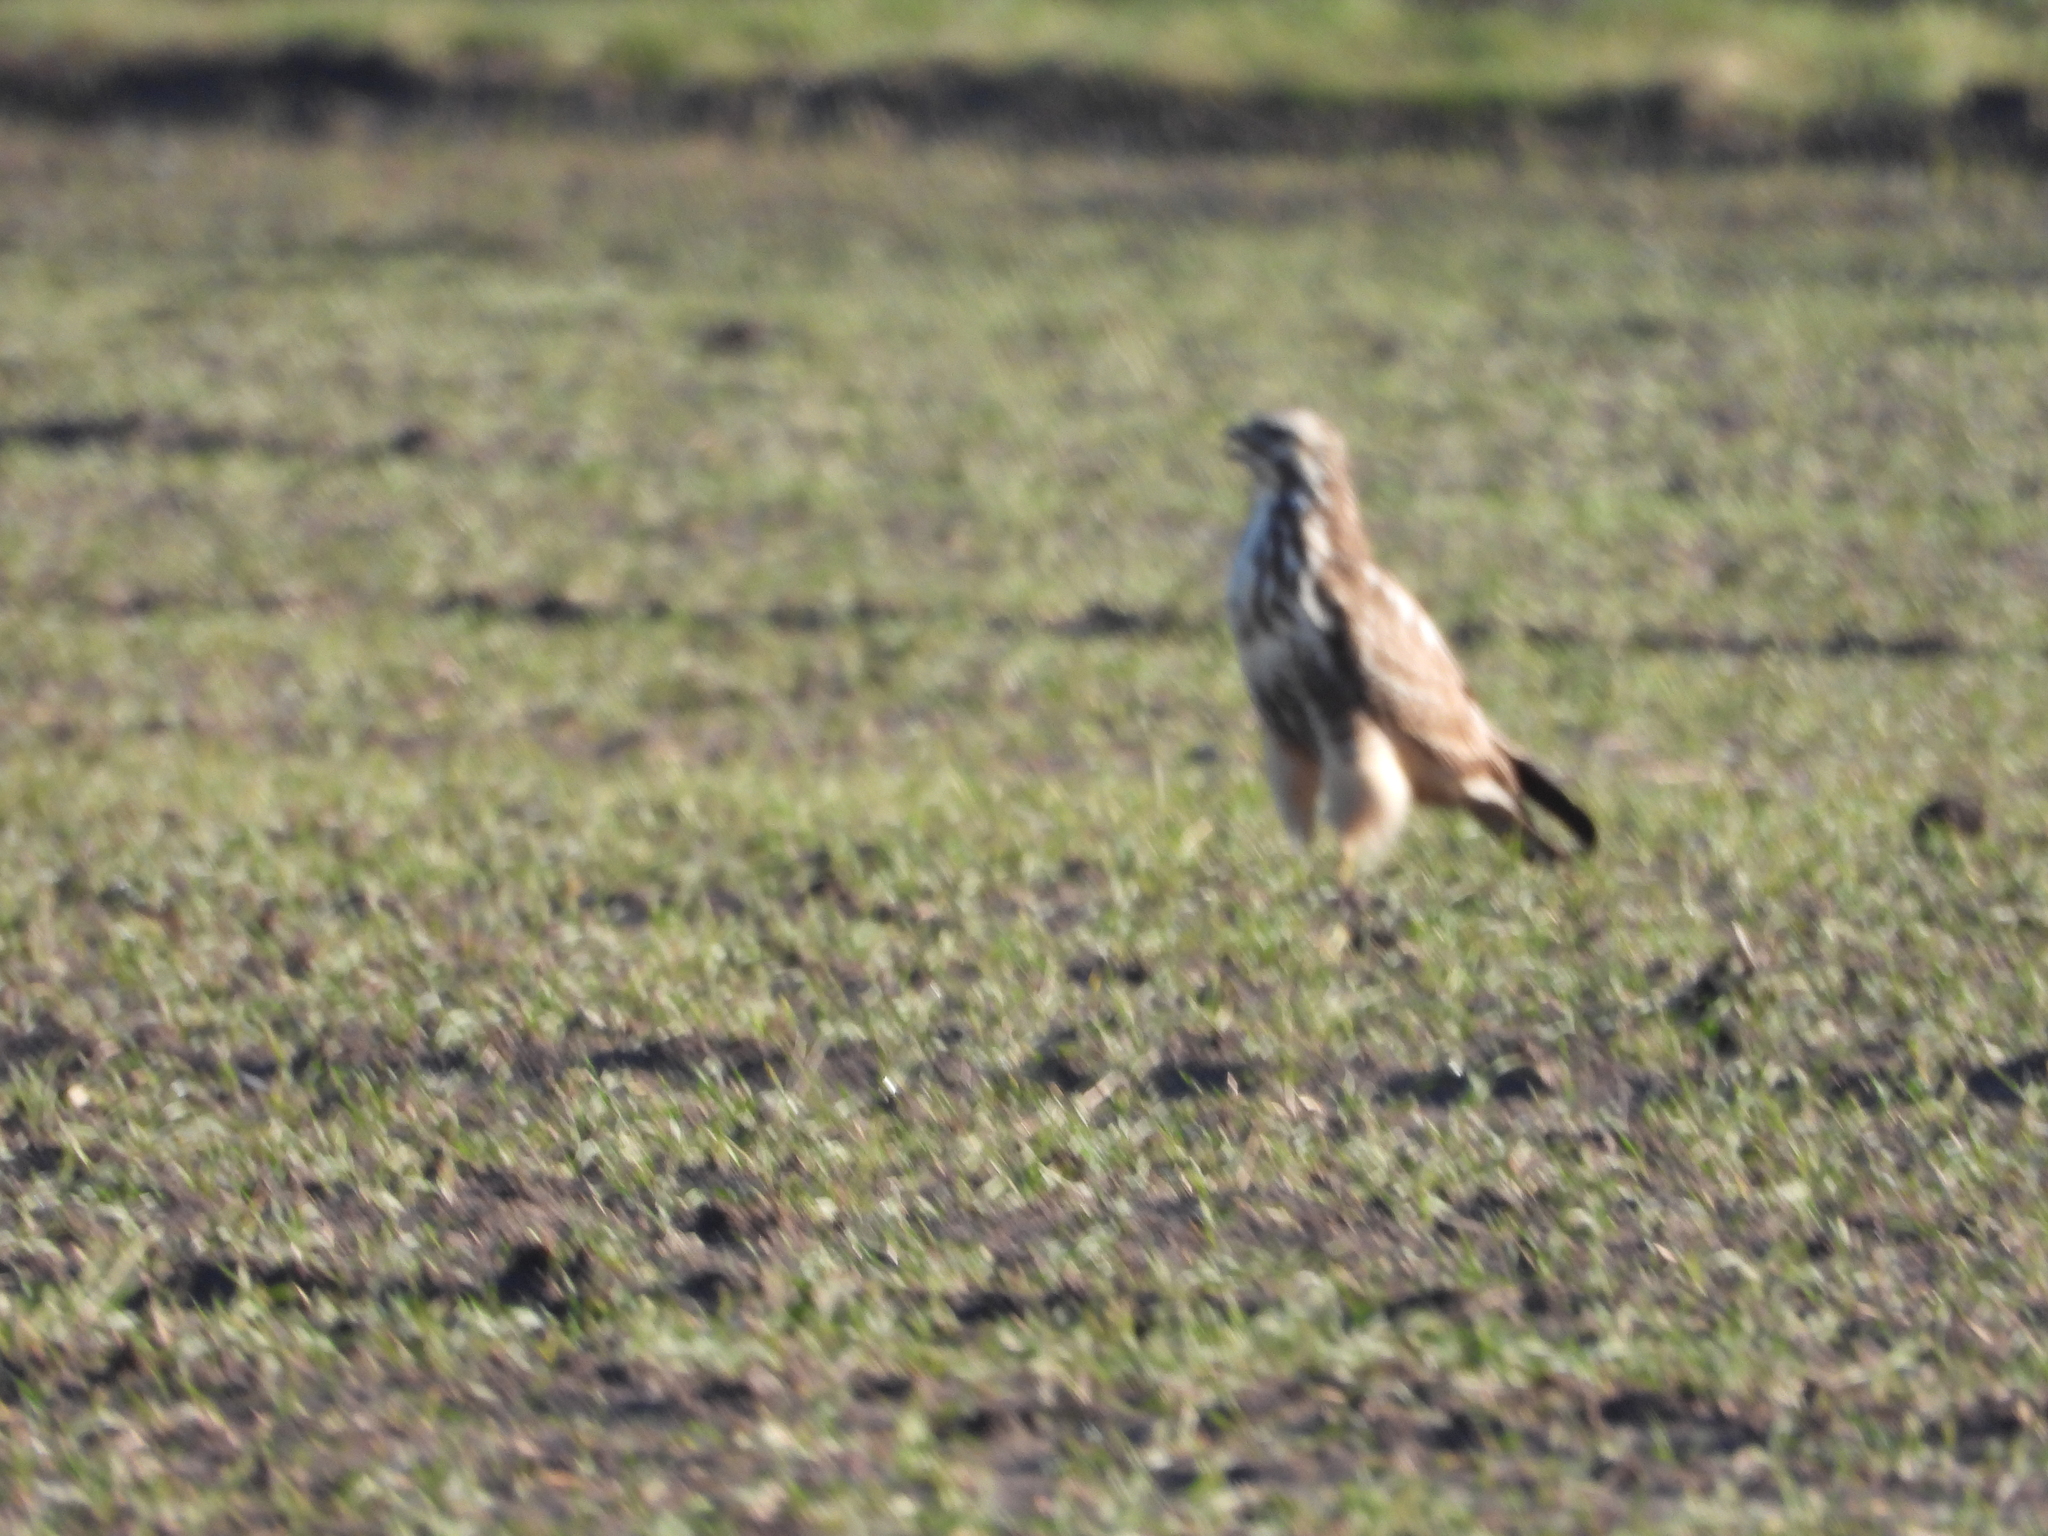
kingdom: Animalia
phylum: Chordata
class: Aves
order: Accipitriformes
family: Accipitridae
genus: Buteo
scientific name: Buteo buteo
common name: Common buzzard
